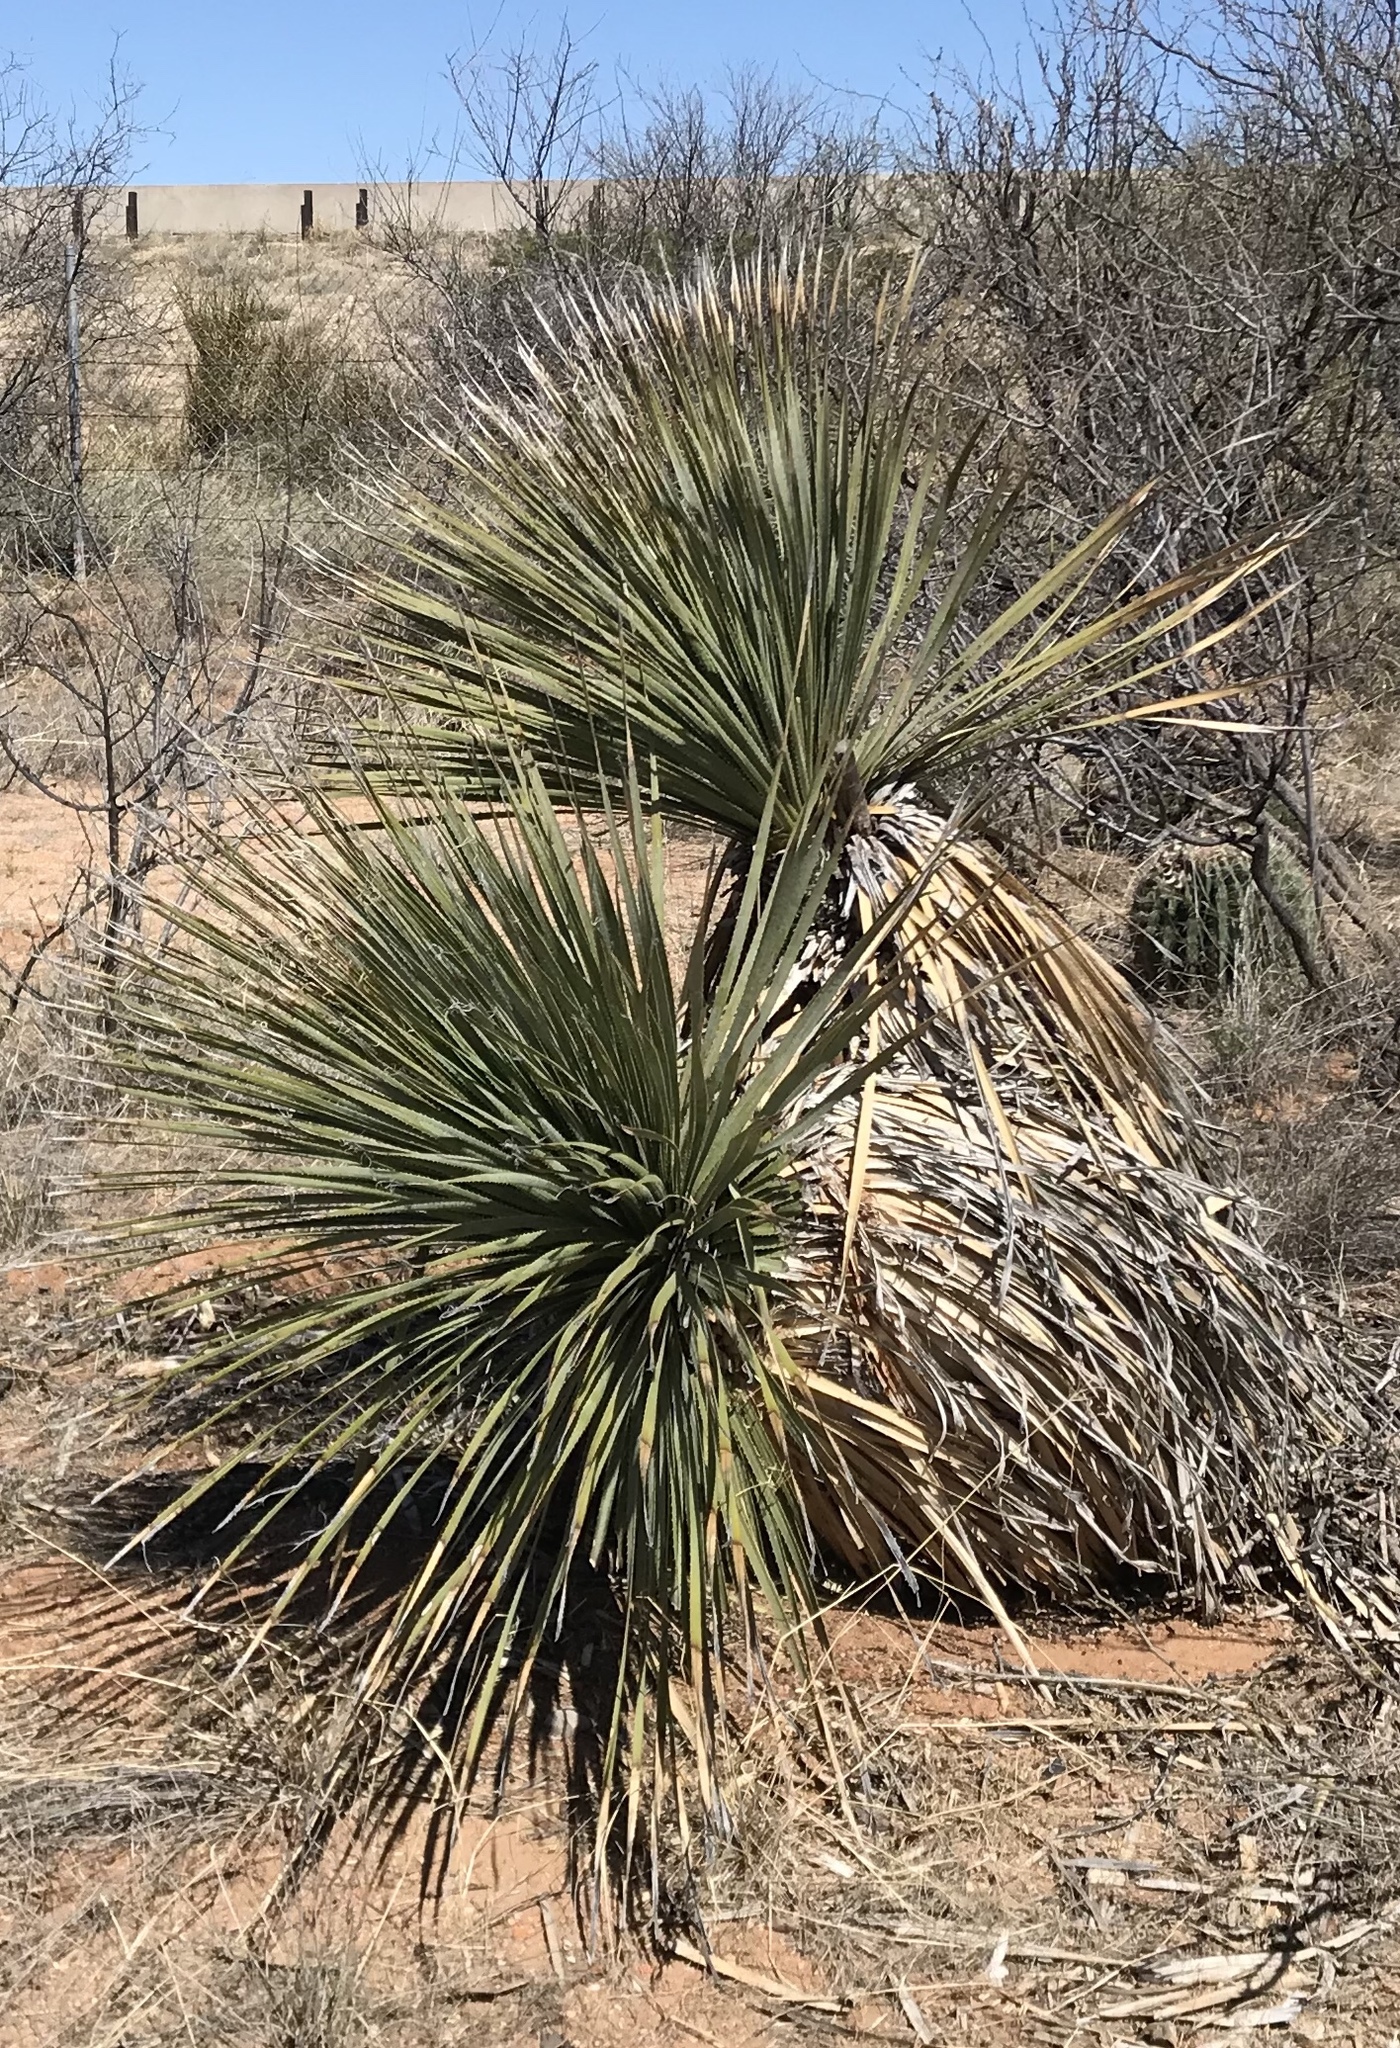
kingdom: Plantae
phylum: Tracheophyta
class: Liliopsida
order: Asparagales
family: Asparagaceae
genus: Dasylirion
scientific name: Dasylirion wheeleri
